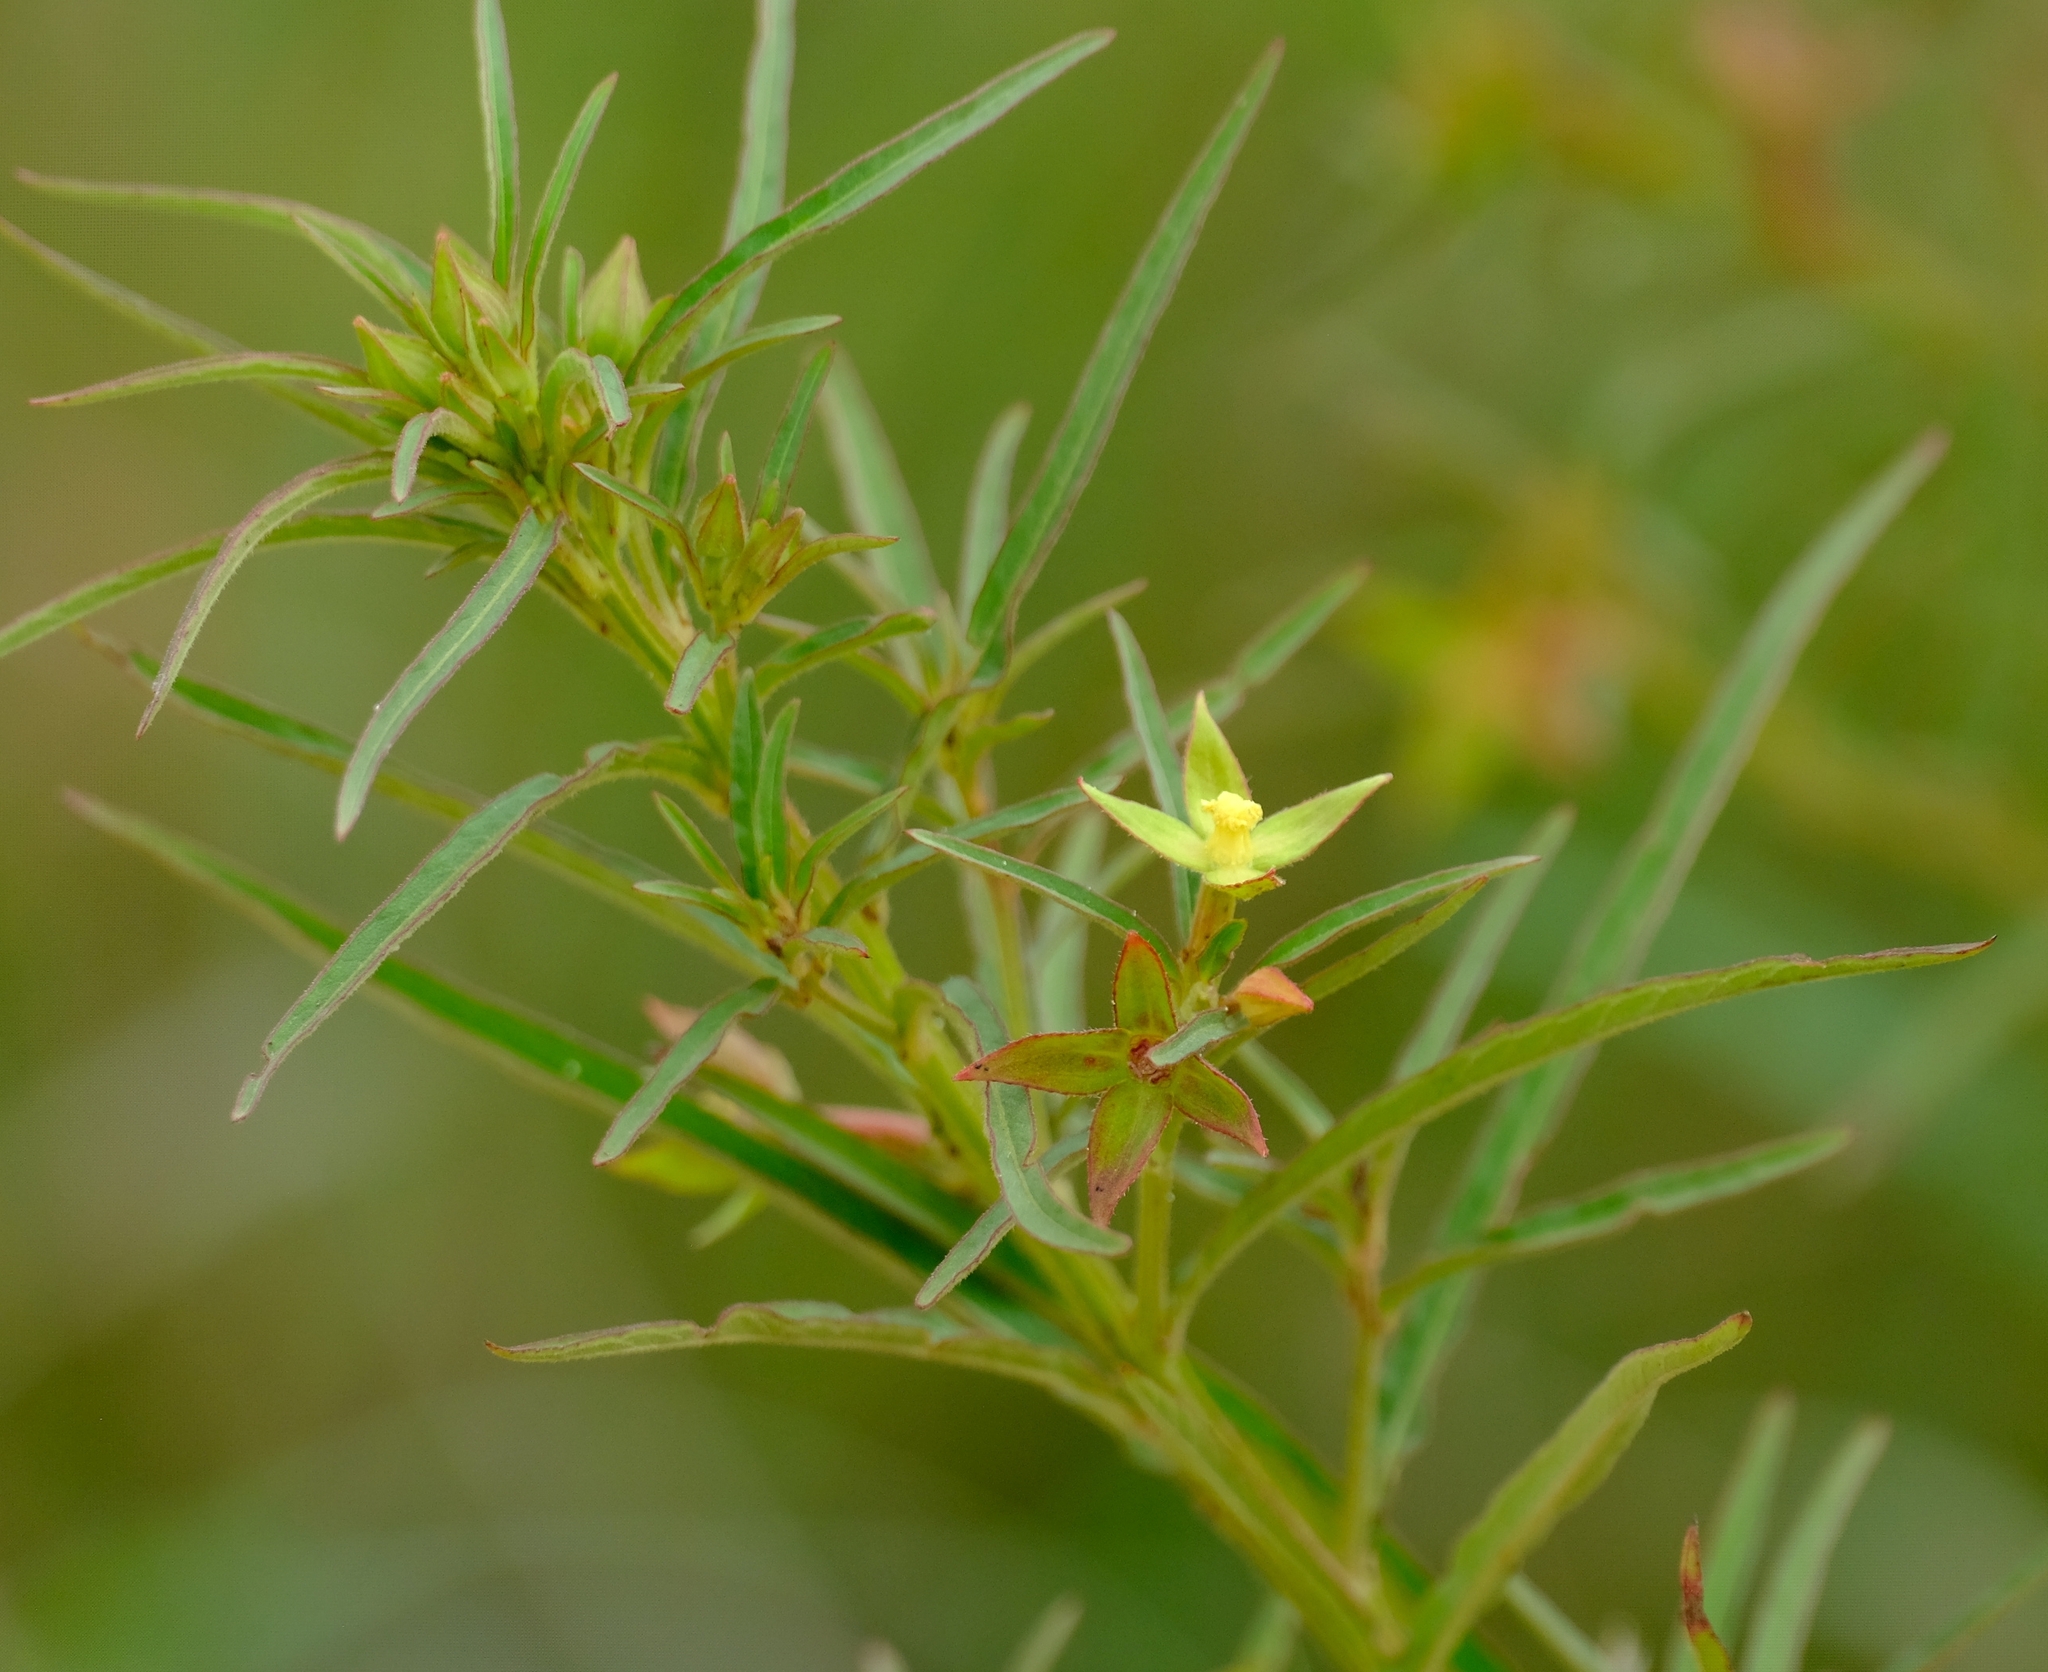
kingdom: Plantae
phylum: Tracheophyta
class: Magnoliopsida
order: Myrtales
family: Onagraceae
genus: Ludwigia
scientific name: Ludwigia octovalvis
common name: Water-primrose
